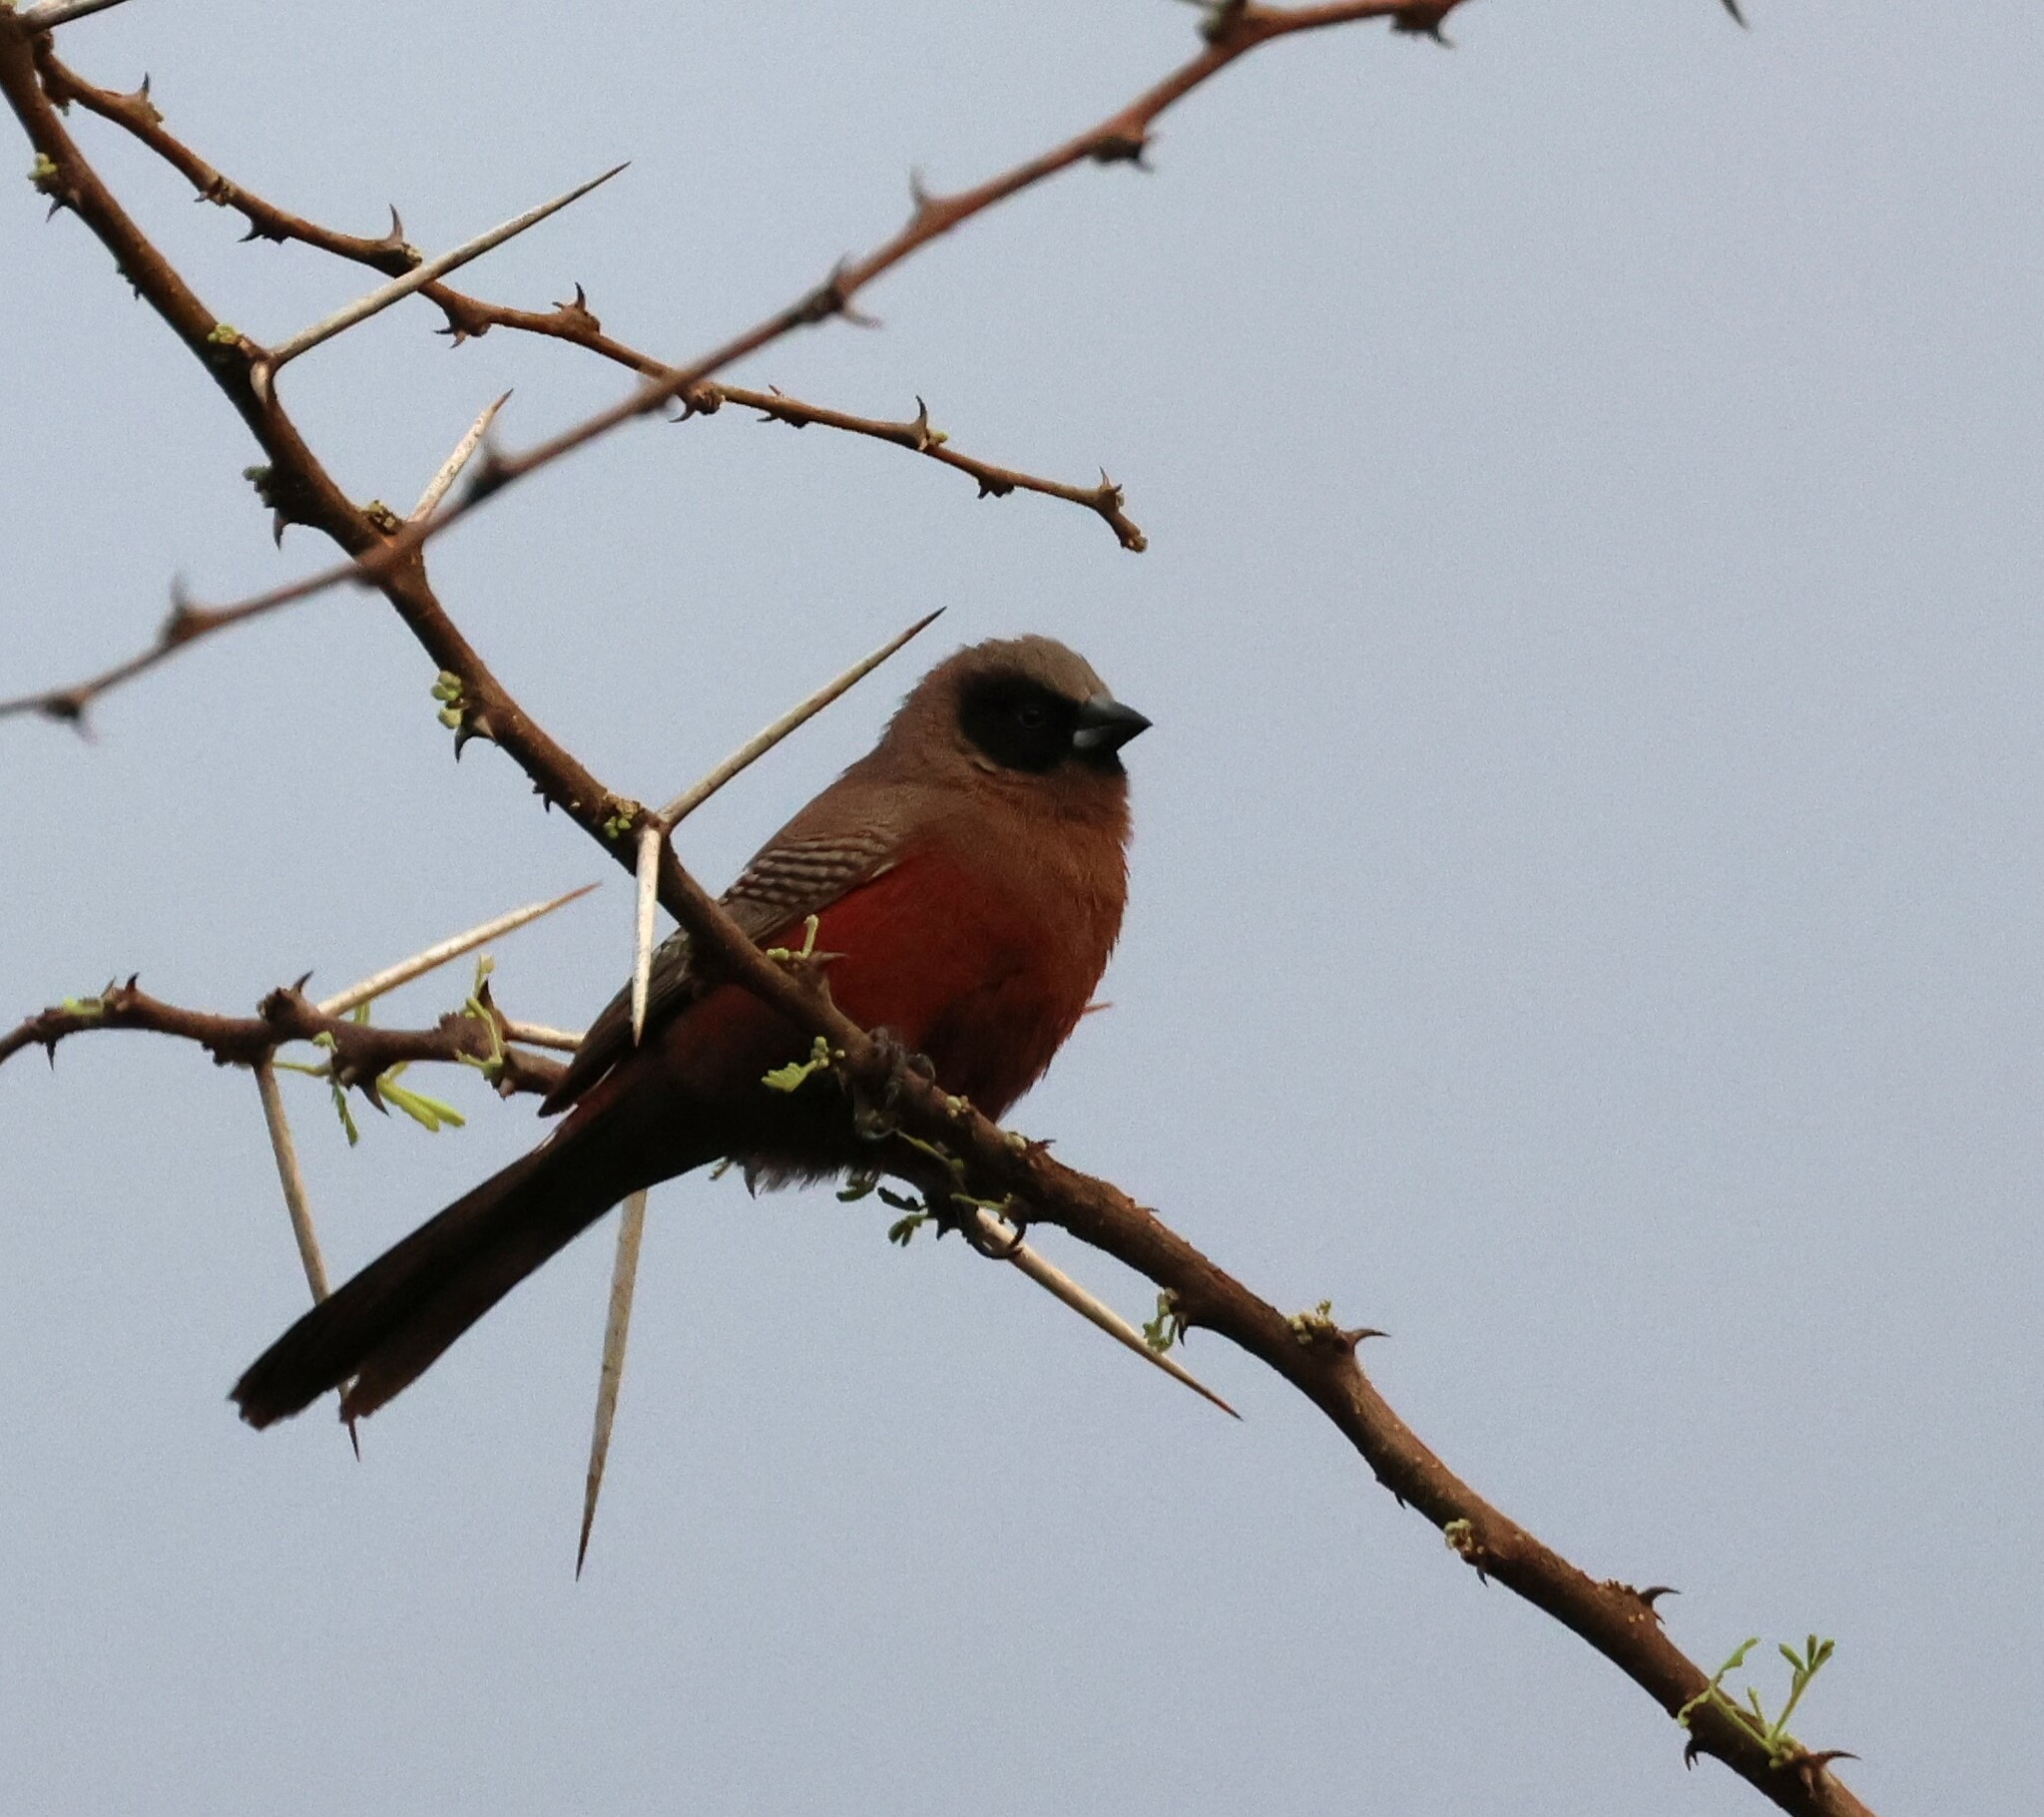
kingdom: Animalia
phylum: Chordata
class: Aves
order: Passeriformes
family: Estrildidae
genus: Estrilda
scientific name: Estrilda erythronotos
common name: Black-faced waxbill
